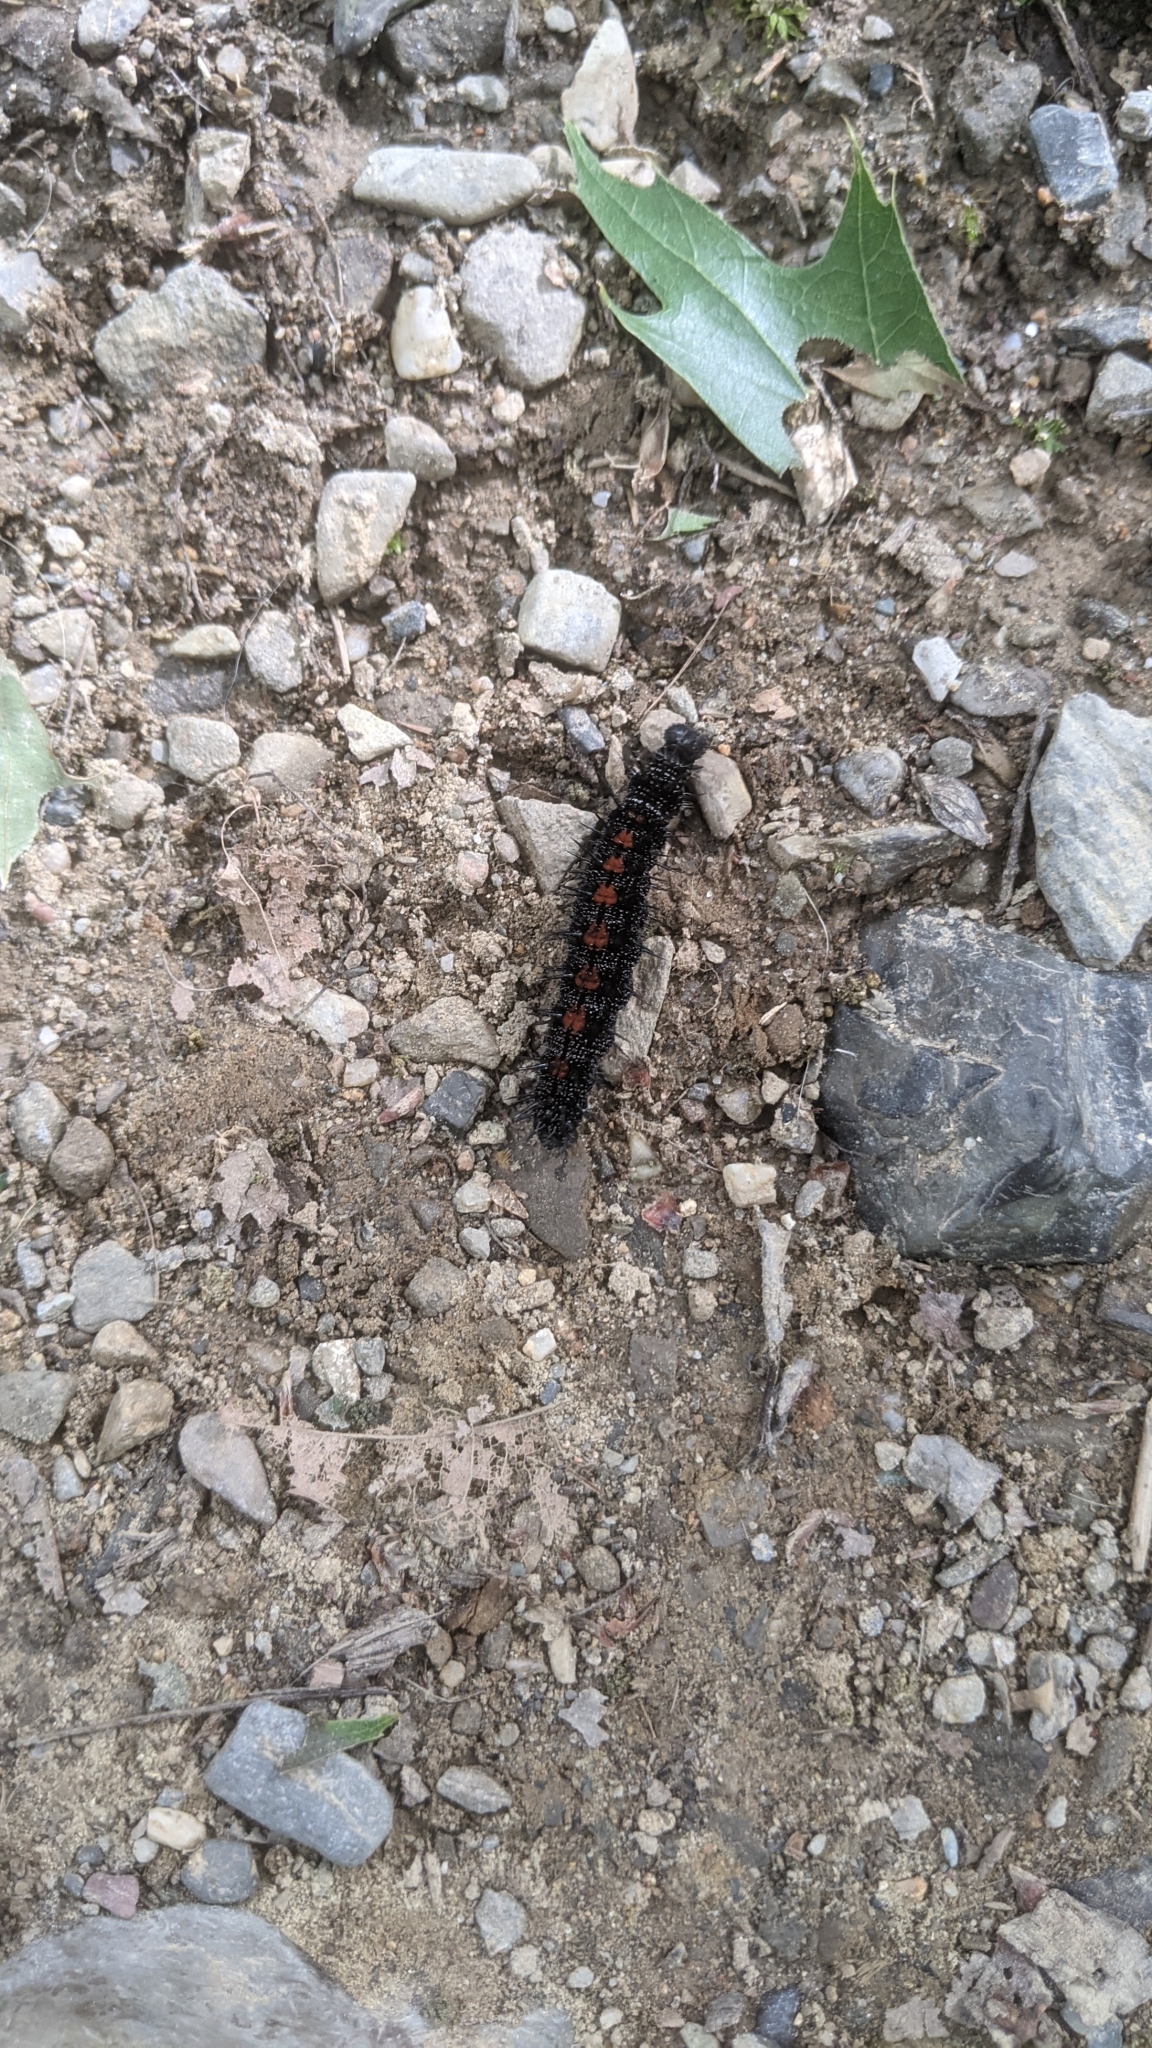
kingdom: Animalia
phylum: Arthropoda
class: Insecta
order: Lepidoptera
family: Nymphalidae
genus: Nymphalis
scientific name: Nymphalis antiopa
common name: Camberwell beauty
